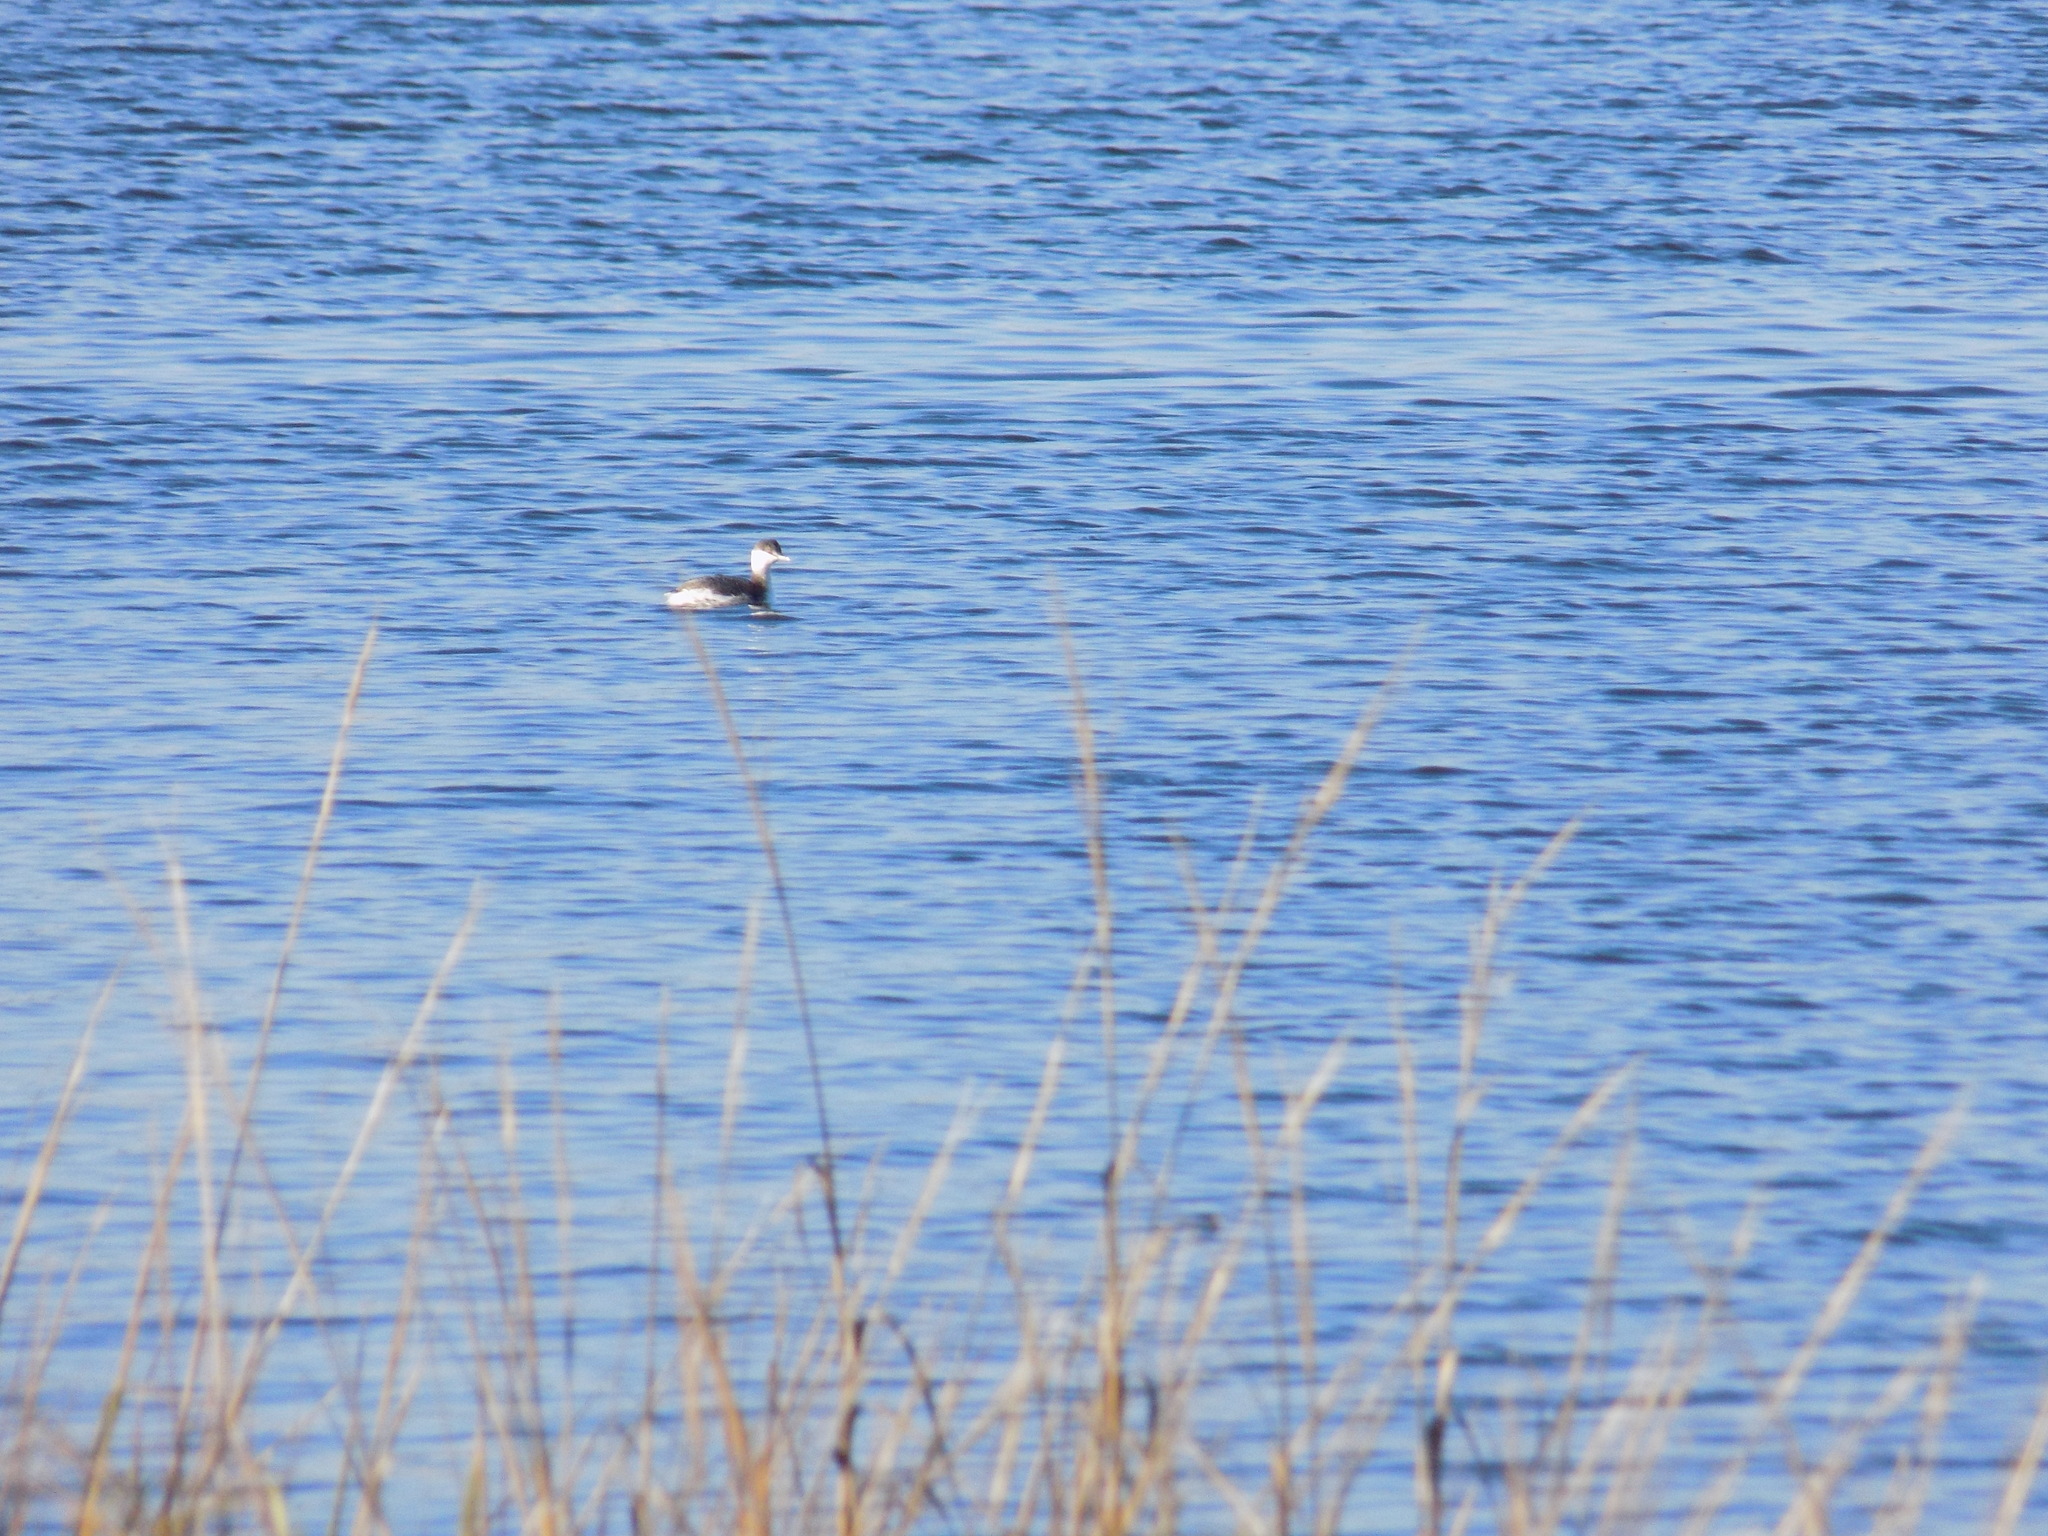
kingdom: Animalia
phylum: Chordata
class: Aves
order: Podicipediformes
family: Podicipedidae
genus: Podiceps
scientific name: Podiceps auritus
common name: Horned grebe
